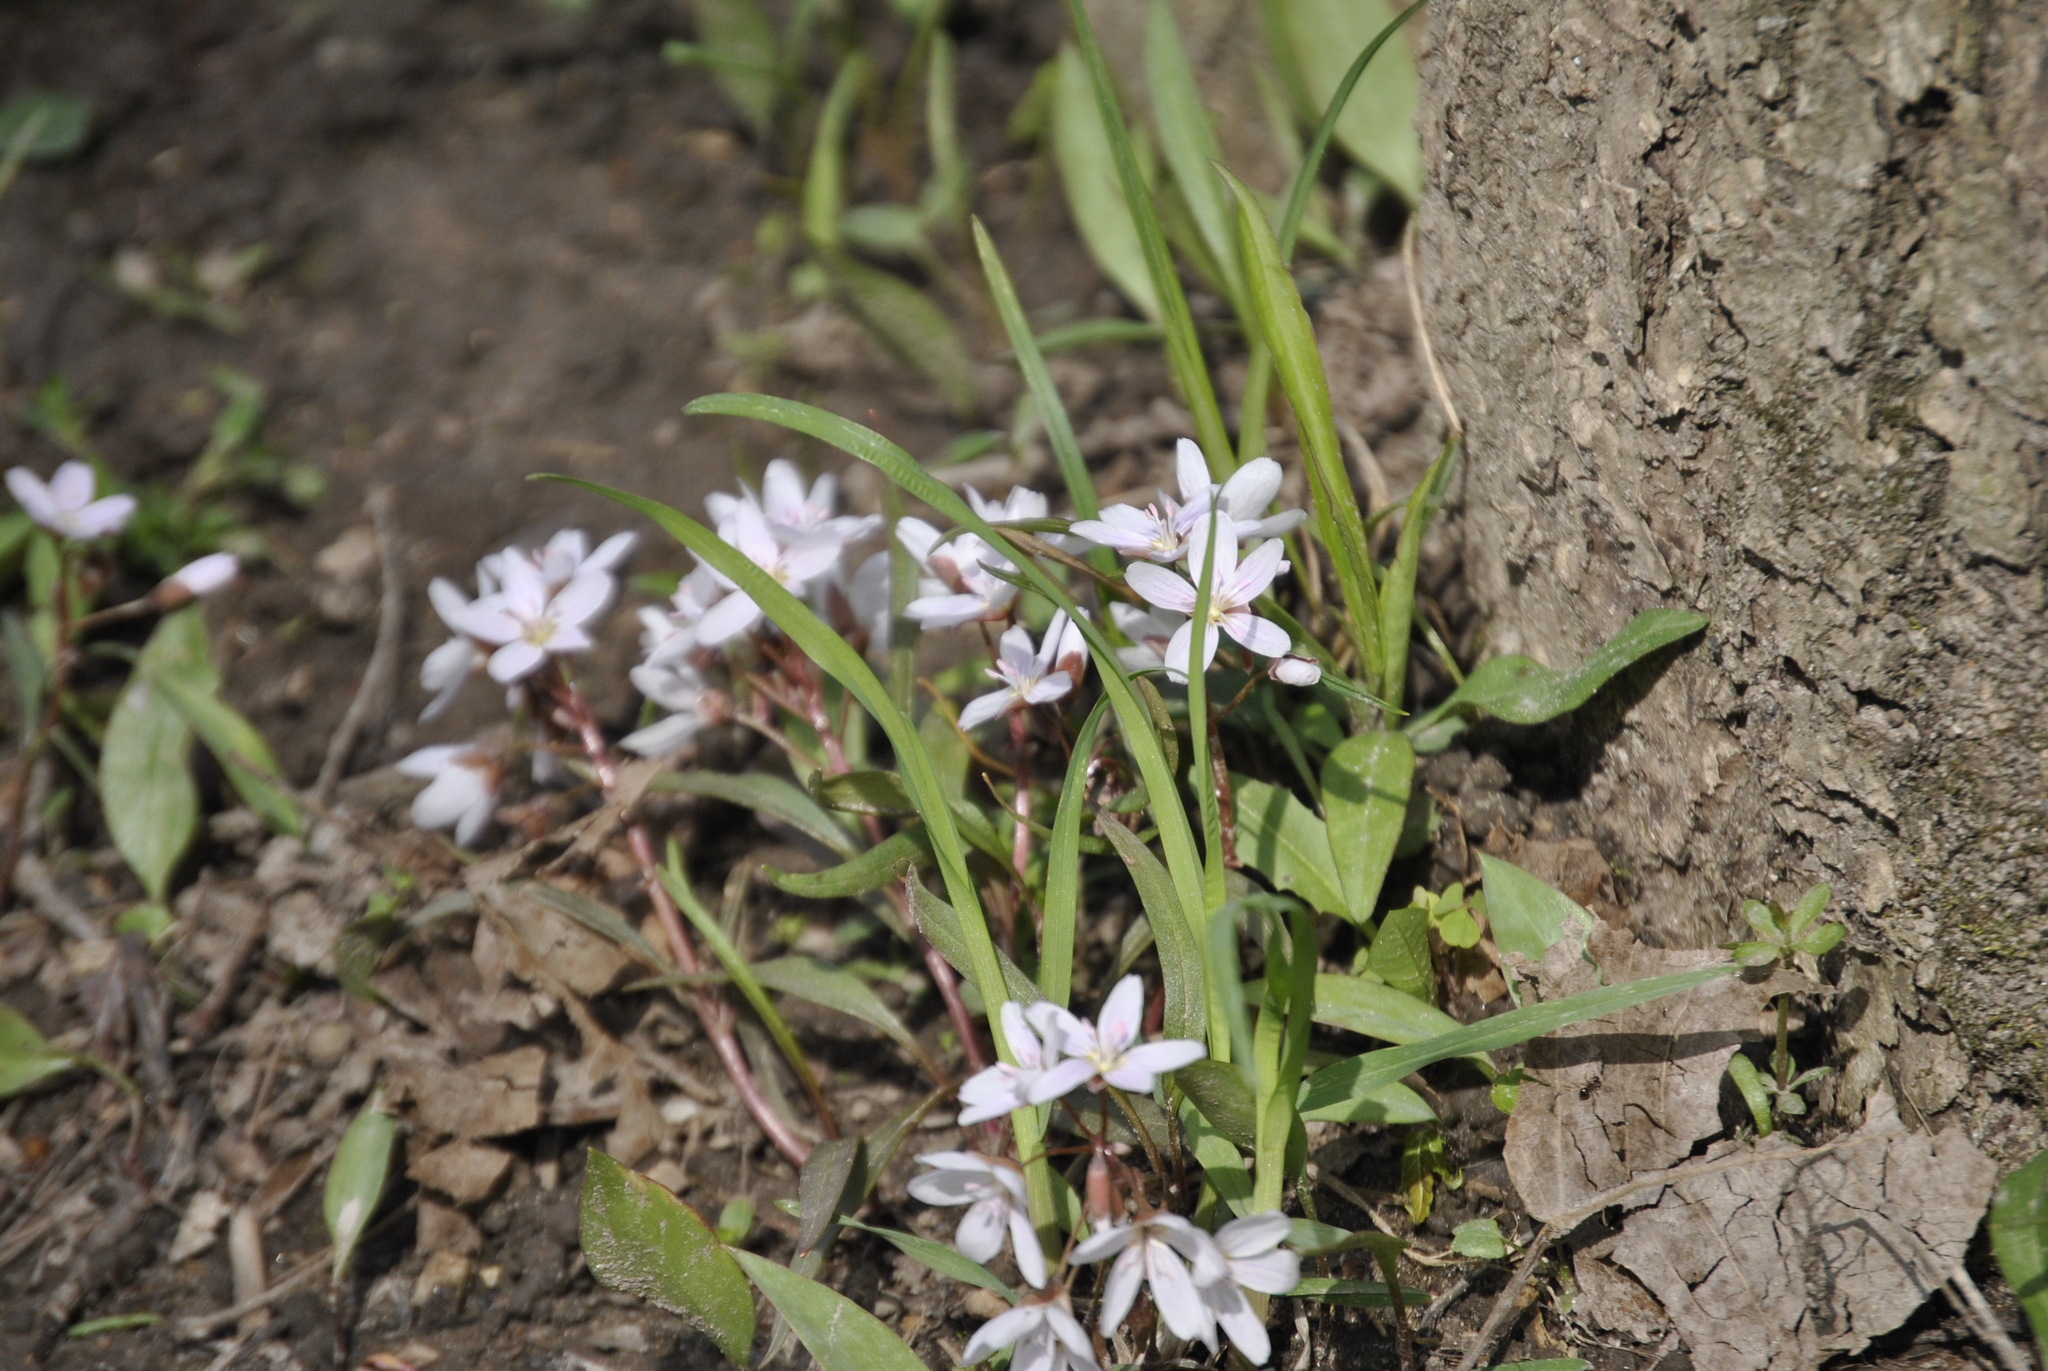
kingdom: Plantae
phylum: Tracheophyta
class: Magnoliopsida
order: Caryophyllales
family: Montiaceae
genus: Claytonia
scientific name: Claytonia virginica
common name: Virginia springbeauty
